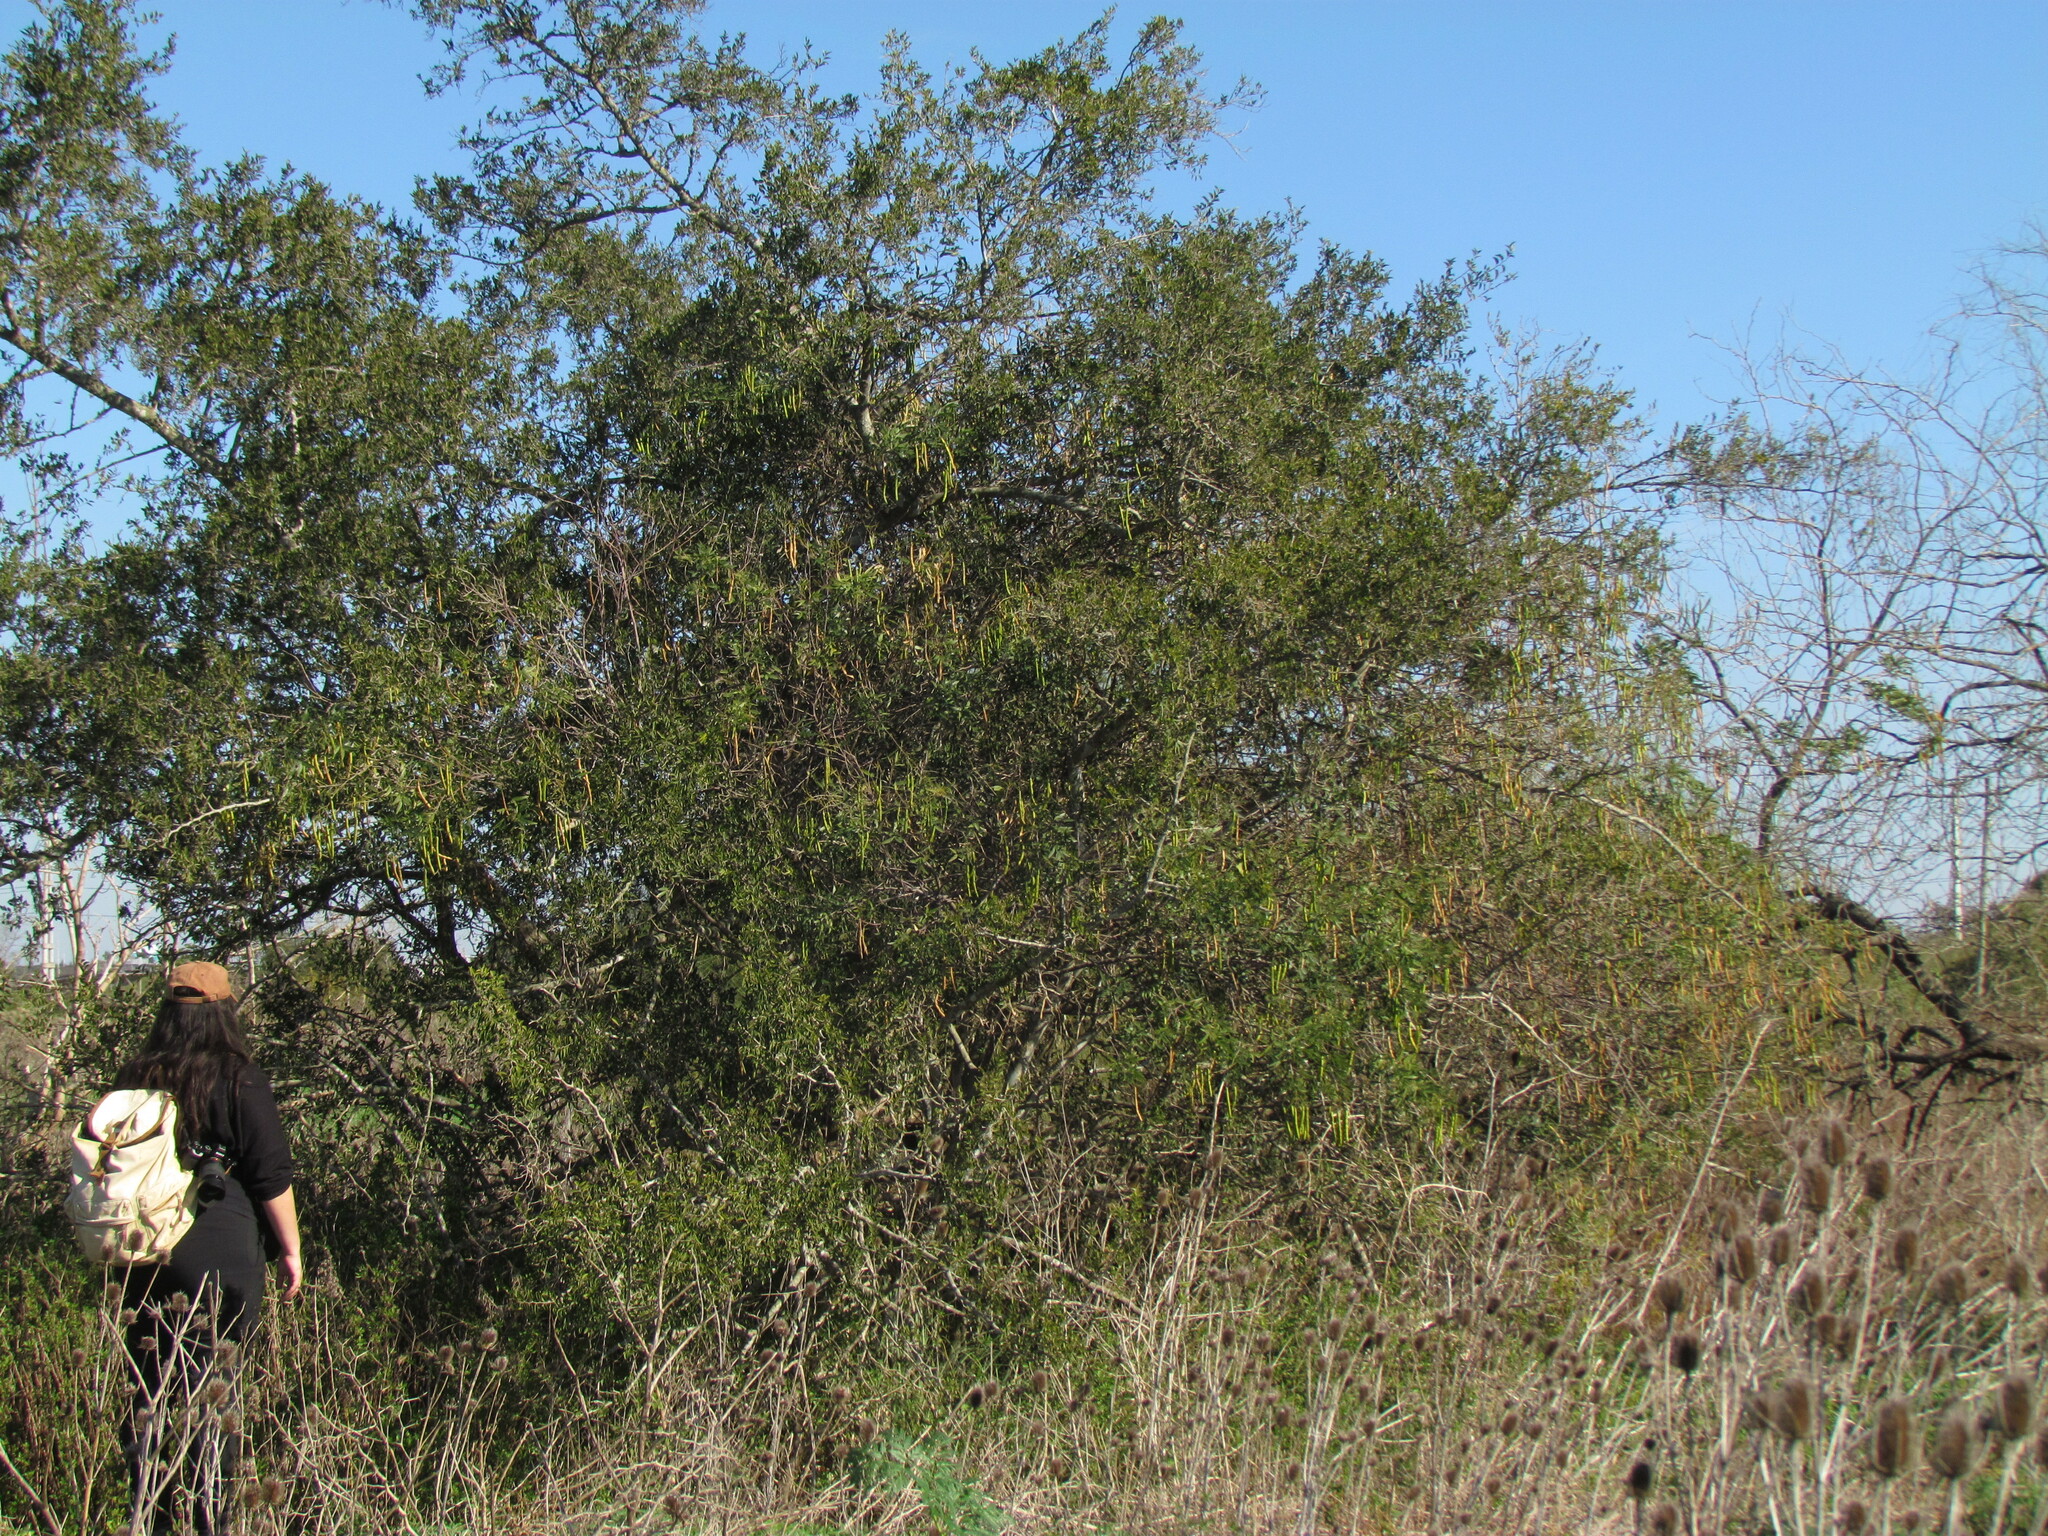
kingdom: Plantae
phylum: Tracheophyta
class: Magnoliopsida
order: Fabales
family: Fabaceae
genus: Senna
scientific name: Senna corymbosa
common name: Argentine senna
